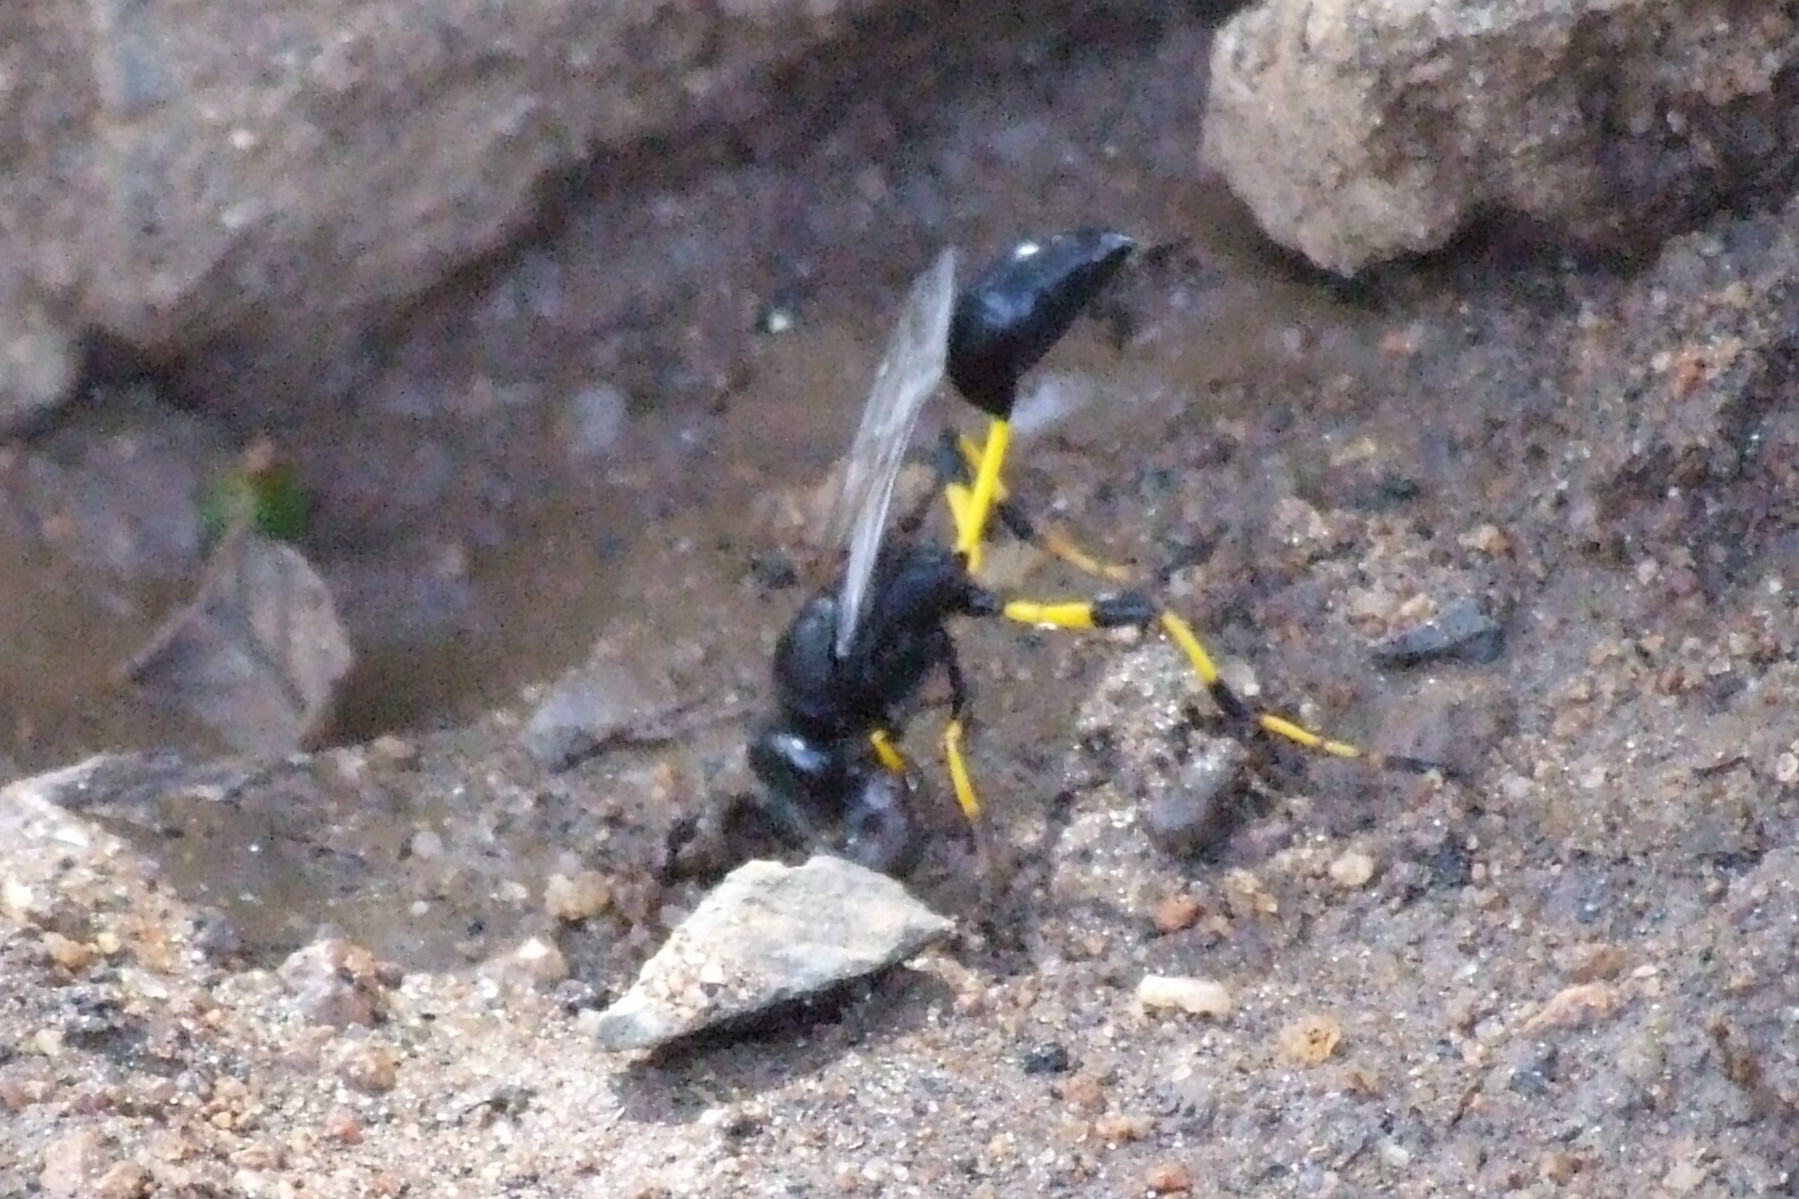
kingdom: Animalia
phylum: Arthropoda
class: Insecta
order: Hymenoptera
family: Sphecidae
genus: Sceliphron
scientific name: Sceliphron spirifex
